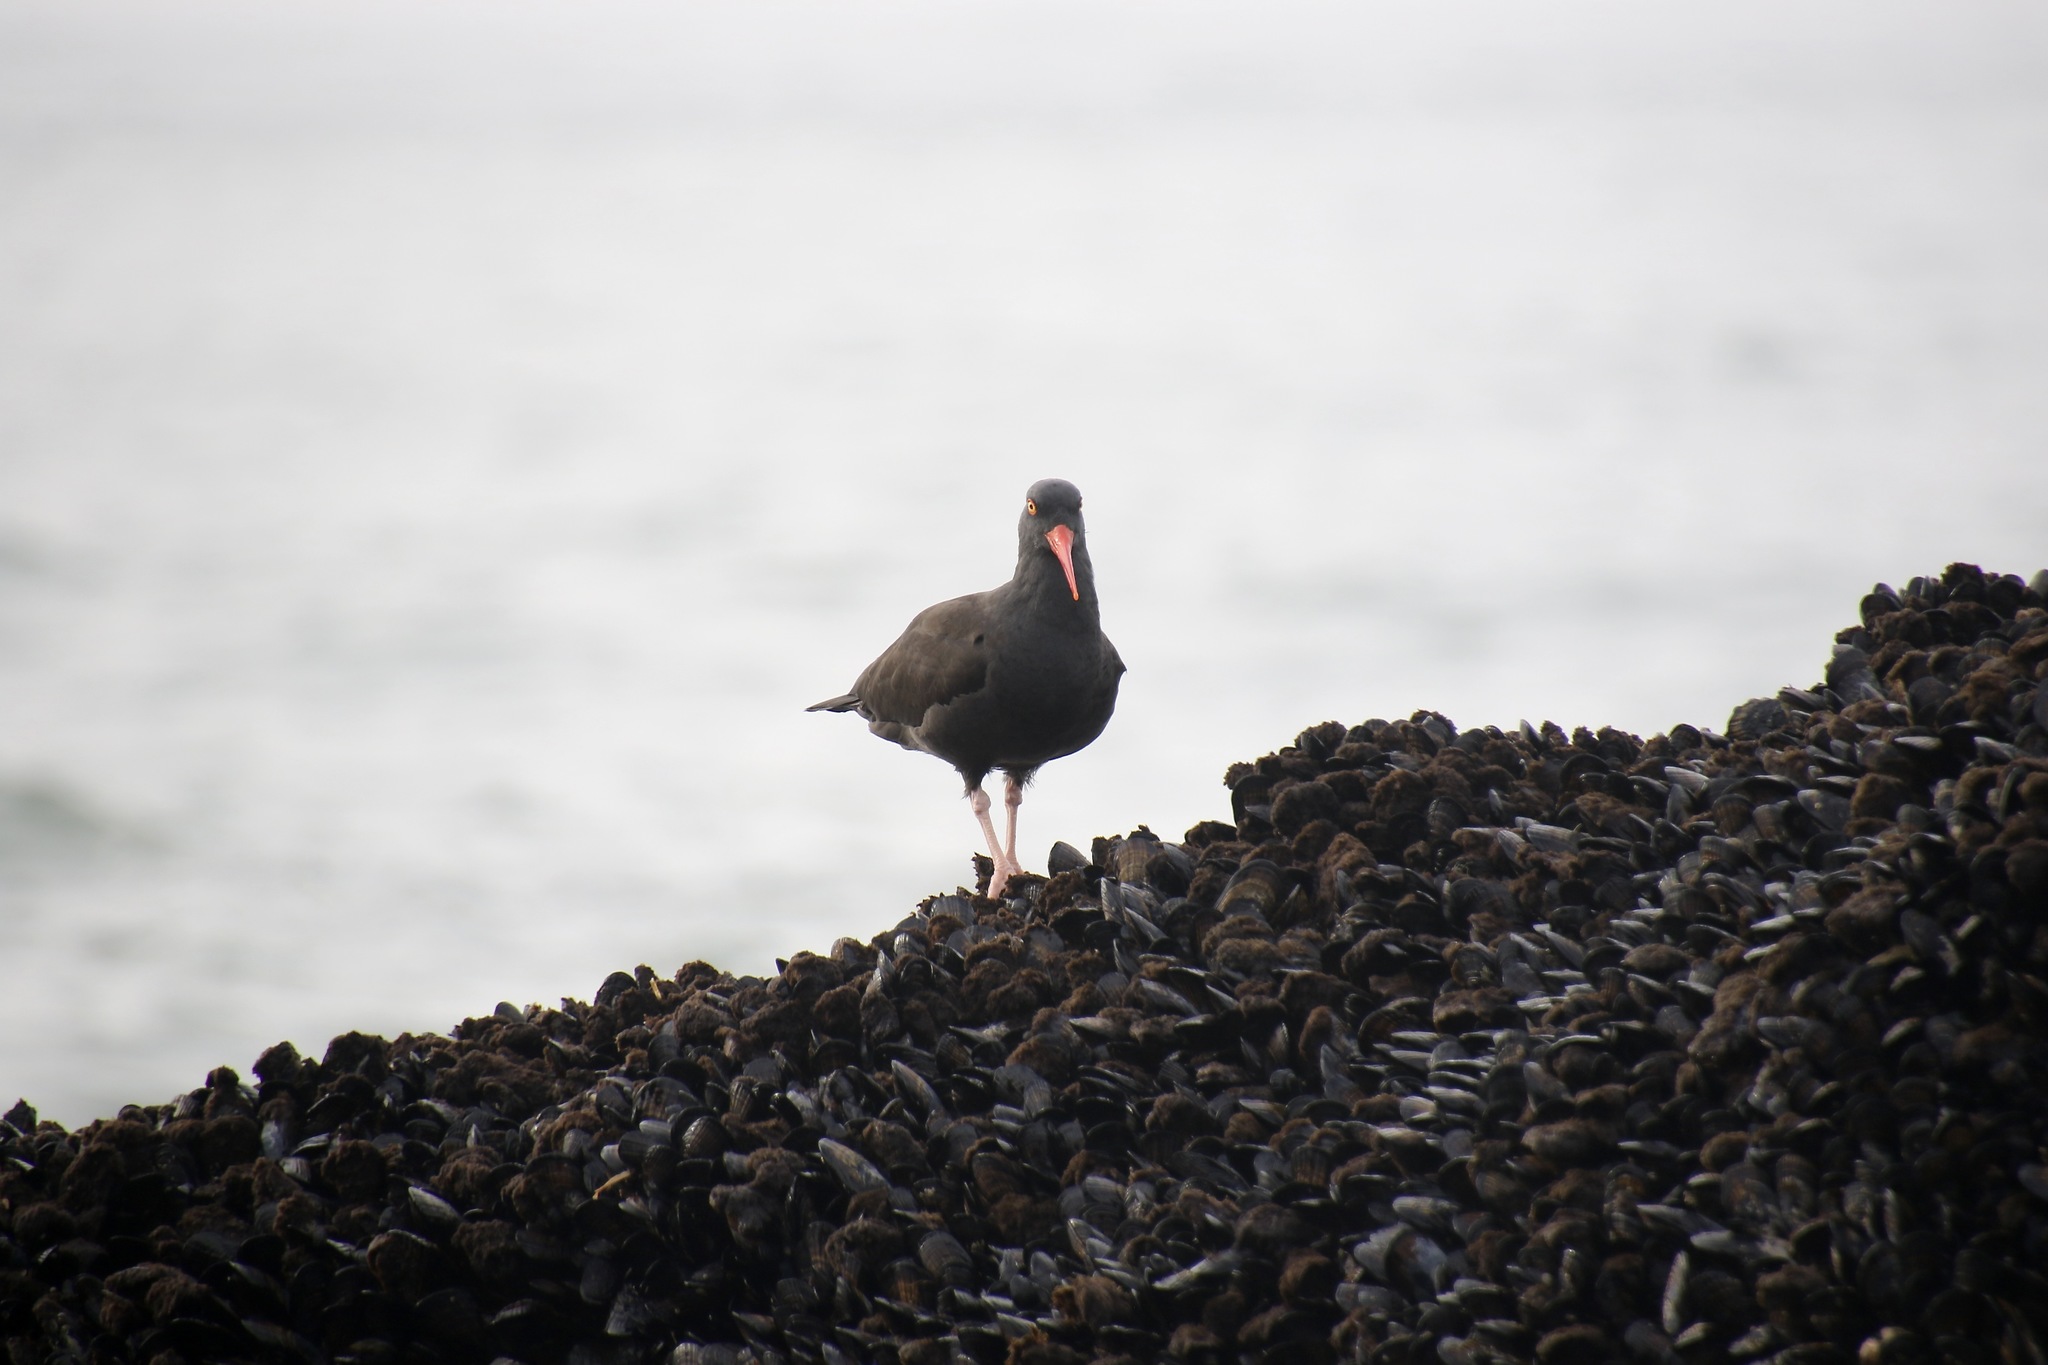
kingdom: Animalia
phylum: Chordata
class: Aves
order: Charadriiformes
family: Haematopodidae
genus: Haematopus
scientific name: Haematopus bachmani
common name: Black oystercatcher
